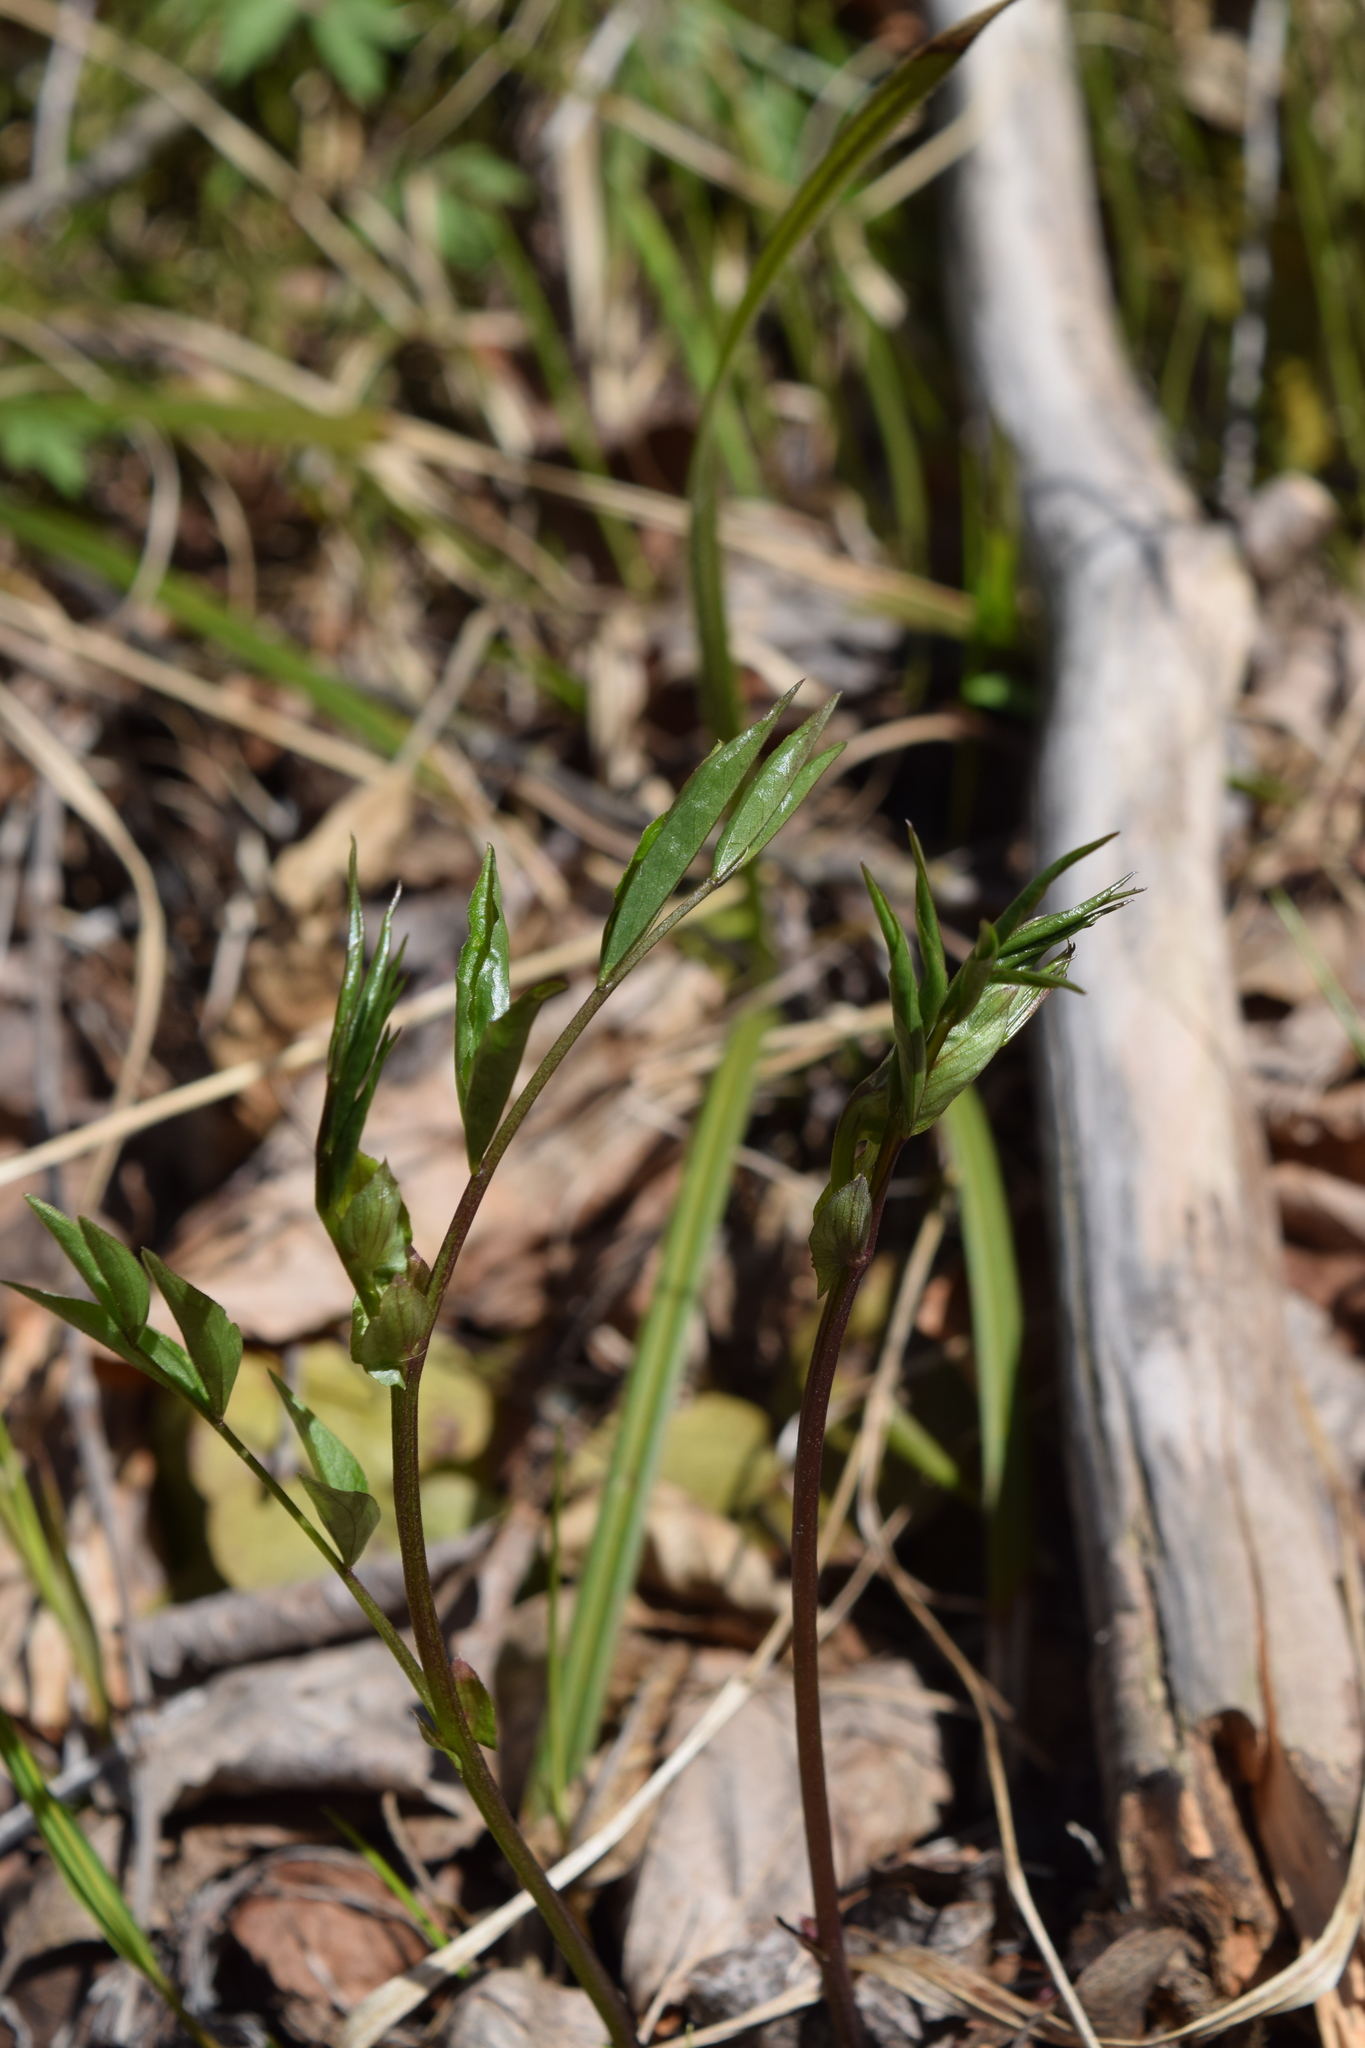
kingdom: Plantae
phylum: Tracheophyta
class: Magnoliopsida
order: Fabales
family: Fabaceae
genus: Lathyrus
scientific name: Lathyrus vernus
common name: Spring pea
